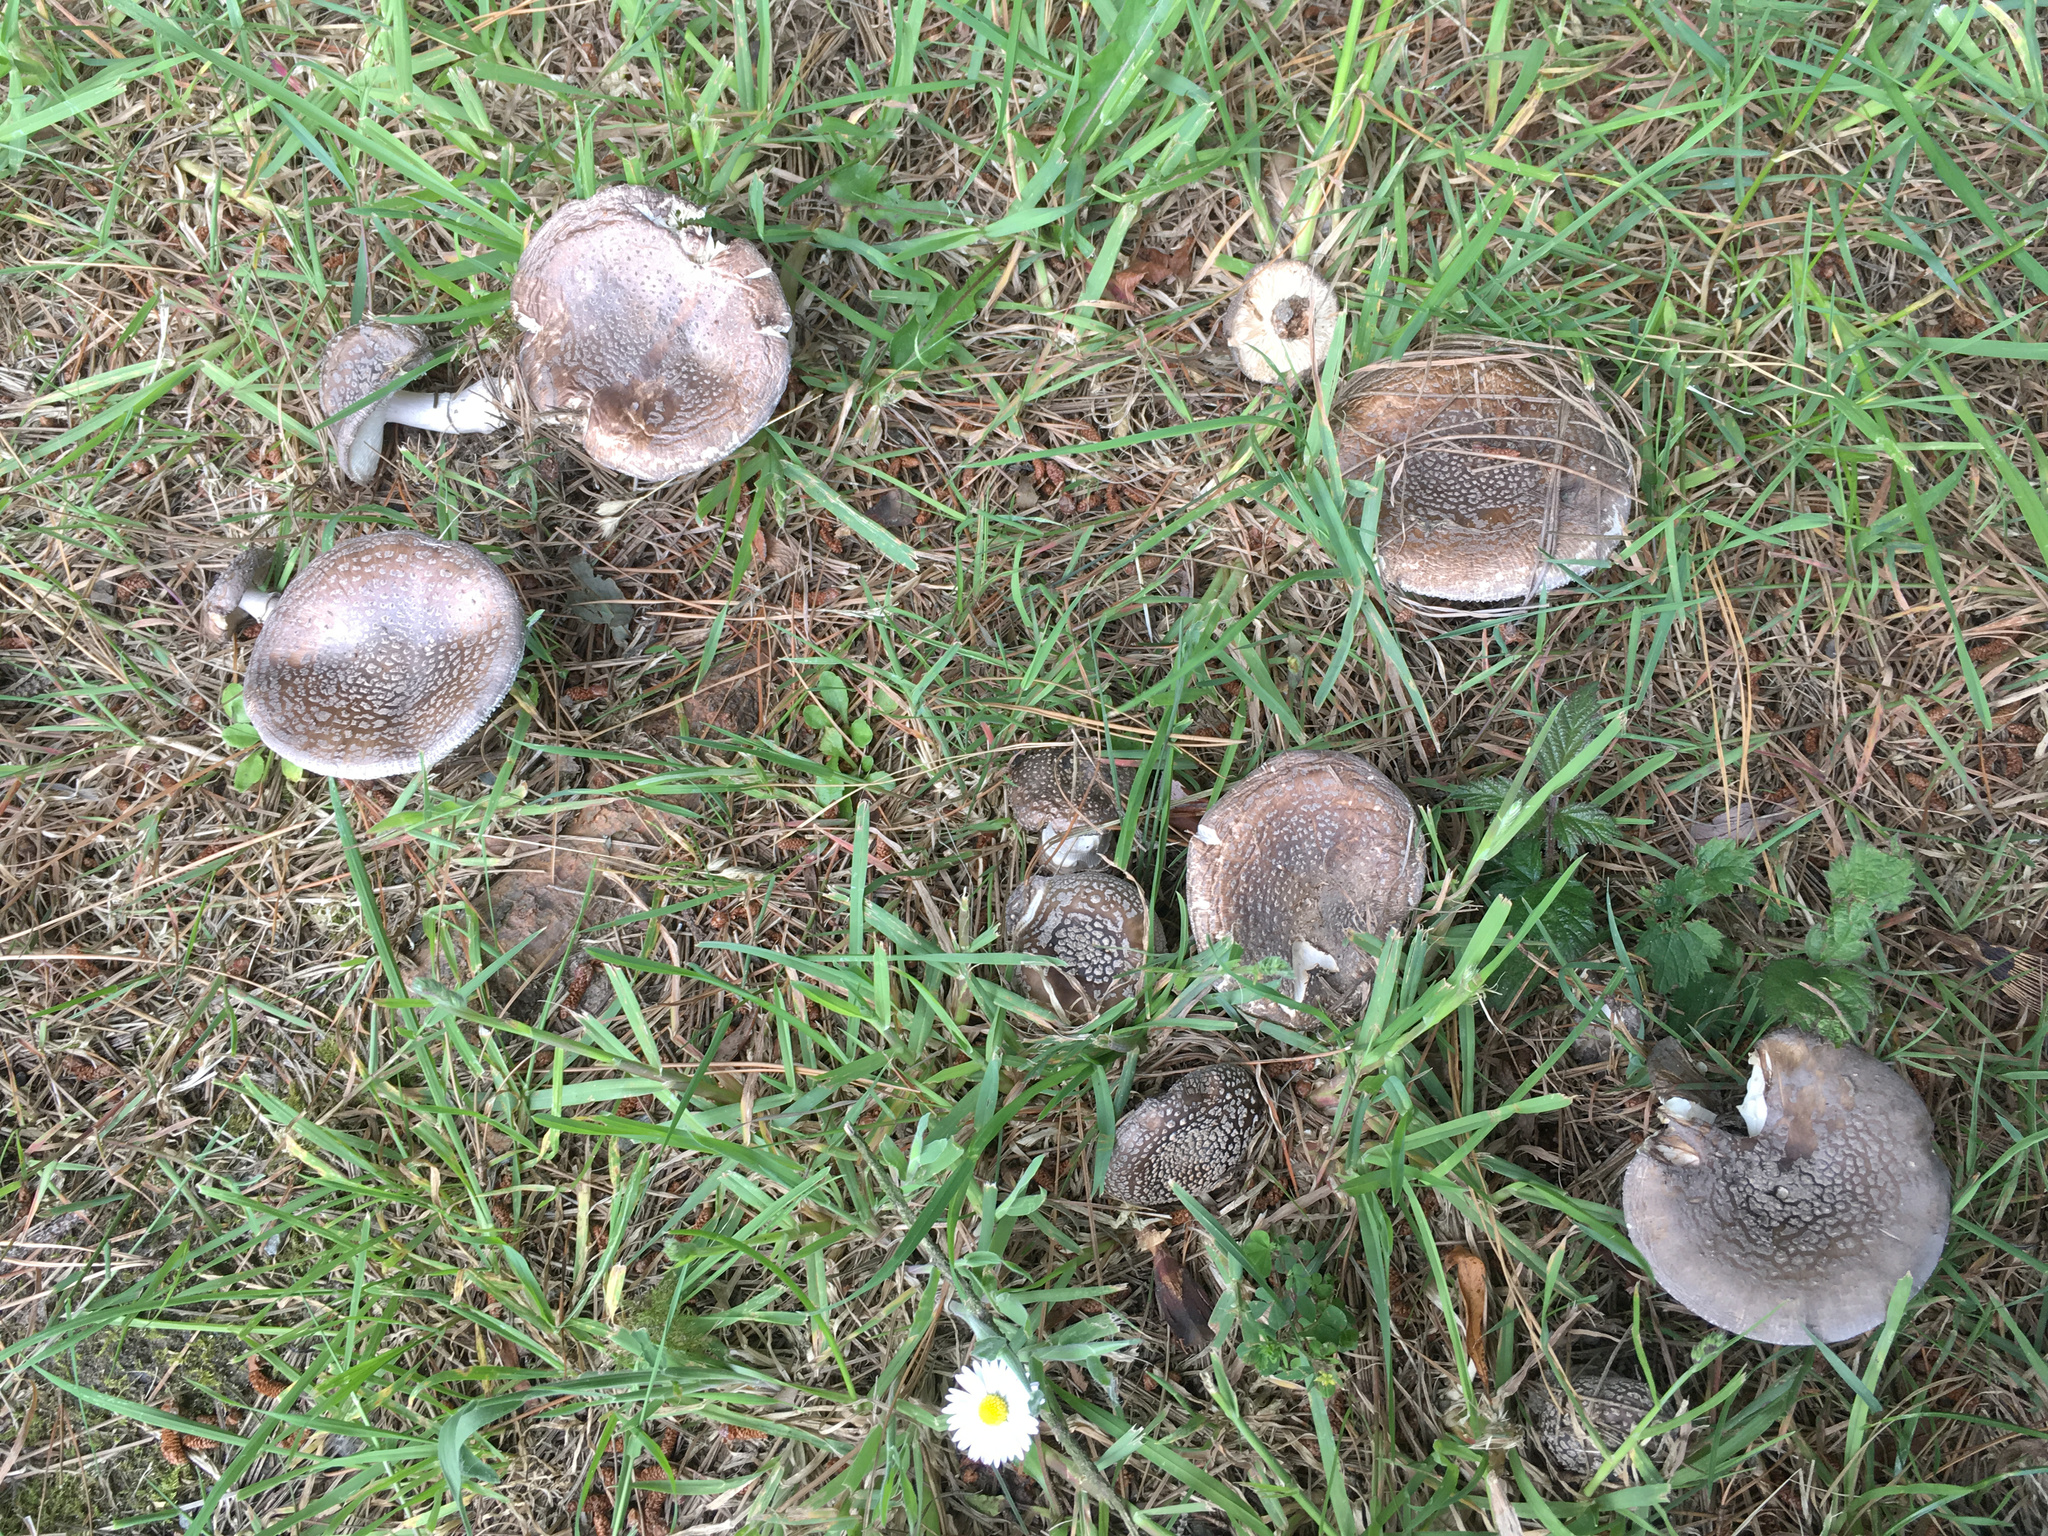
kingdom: Fungi
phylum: Basidiomycota
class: Agaricomycetes
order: Agaricales
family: Amanitaceae
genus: Amanita
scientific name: Amanita excelsa
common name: European false blusher
